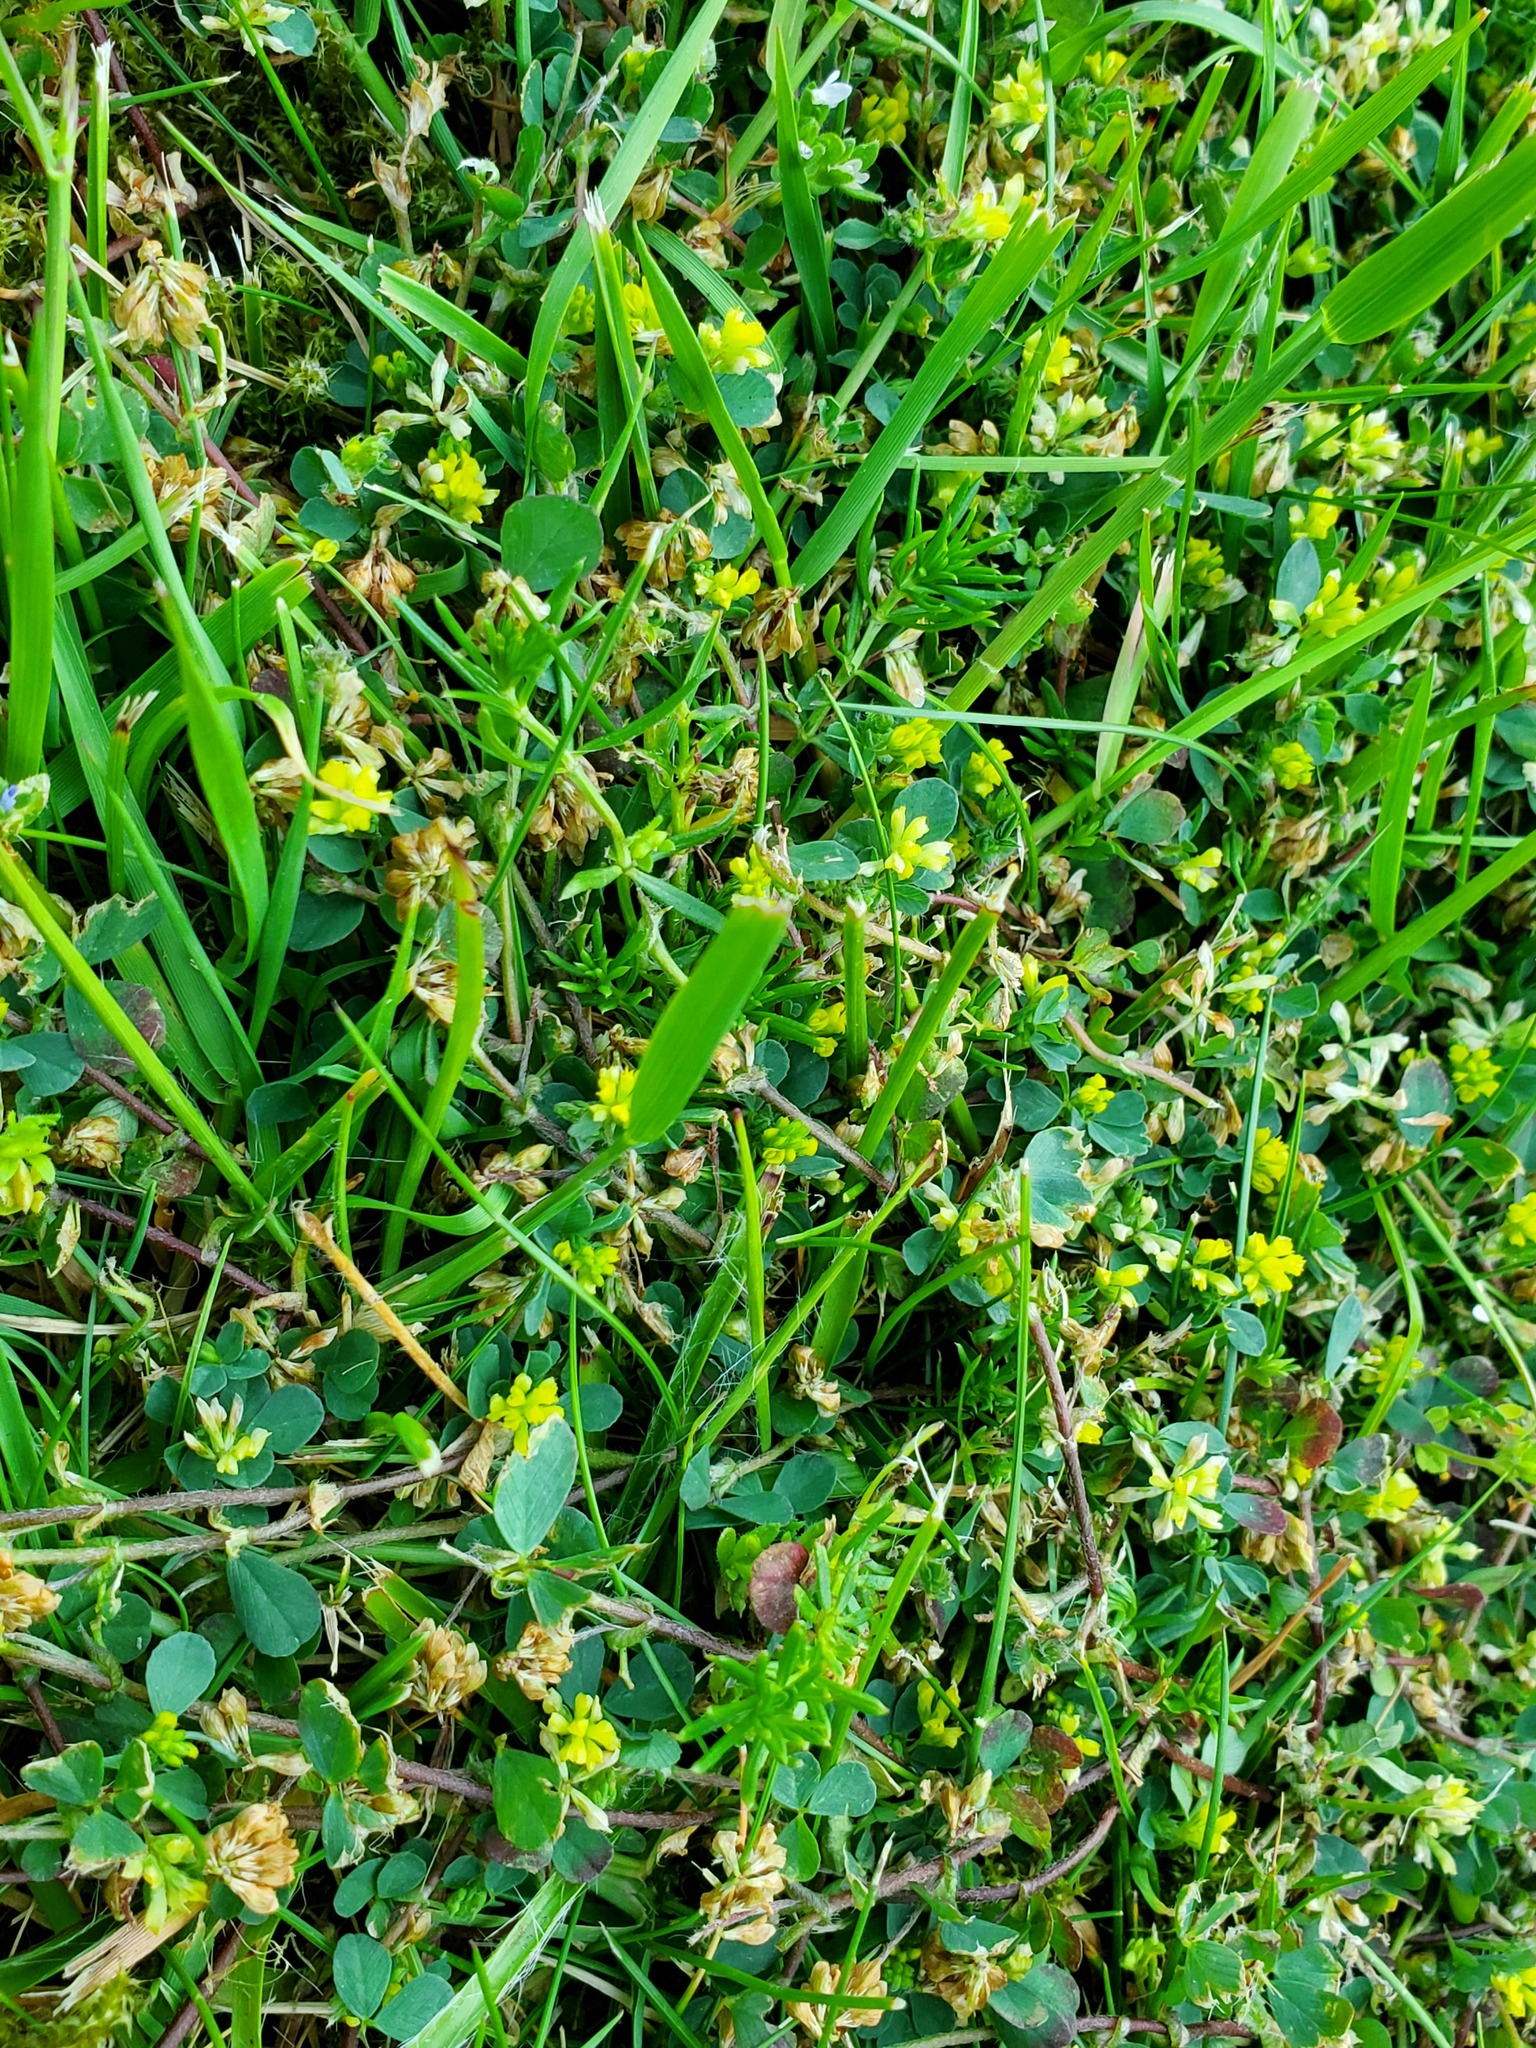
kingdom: Plantae
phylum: Tracheophyta
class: Magnoliopsida
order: Fabales
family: Fabaceae
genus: Trifolium
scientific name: Trifolium dubium
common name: Suckling clover
